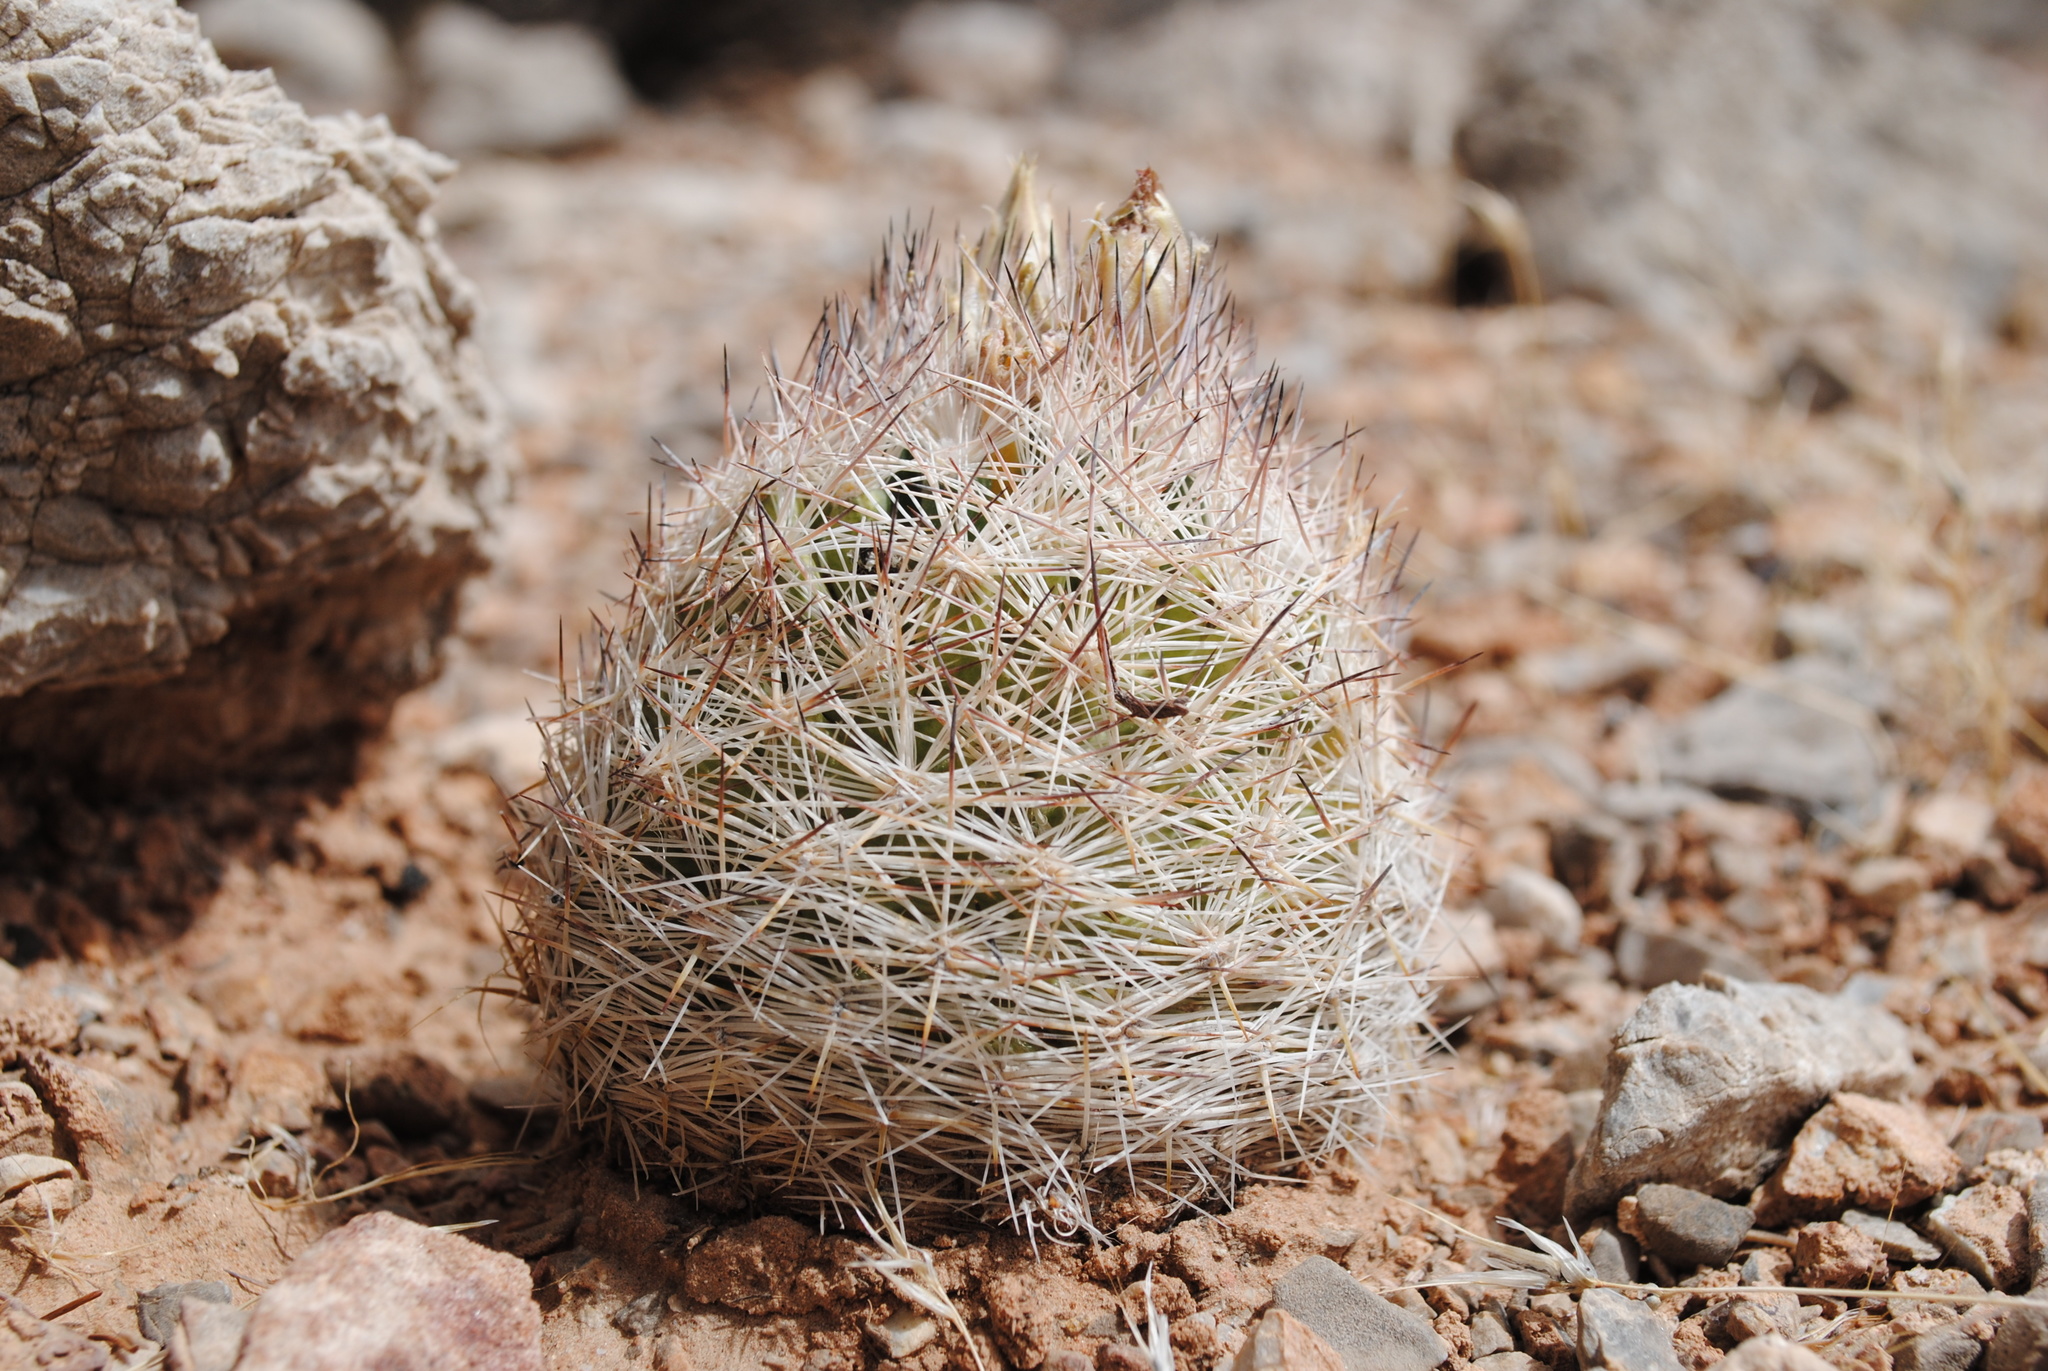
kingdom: Plantae
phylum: Tracheophyta
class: Magnoliopsida
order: Caryophyllales
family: Cactaceae
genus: Pelecyphora
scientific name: Pelecyphora dasyacantha
